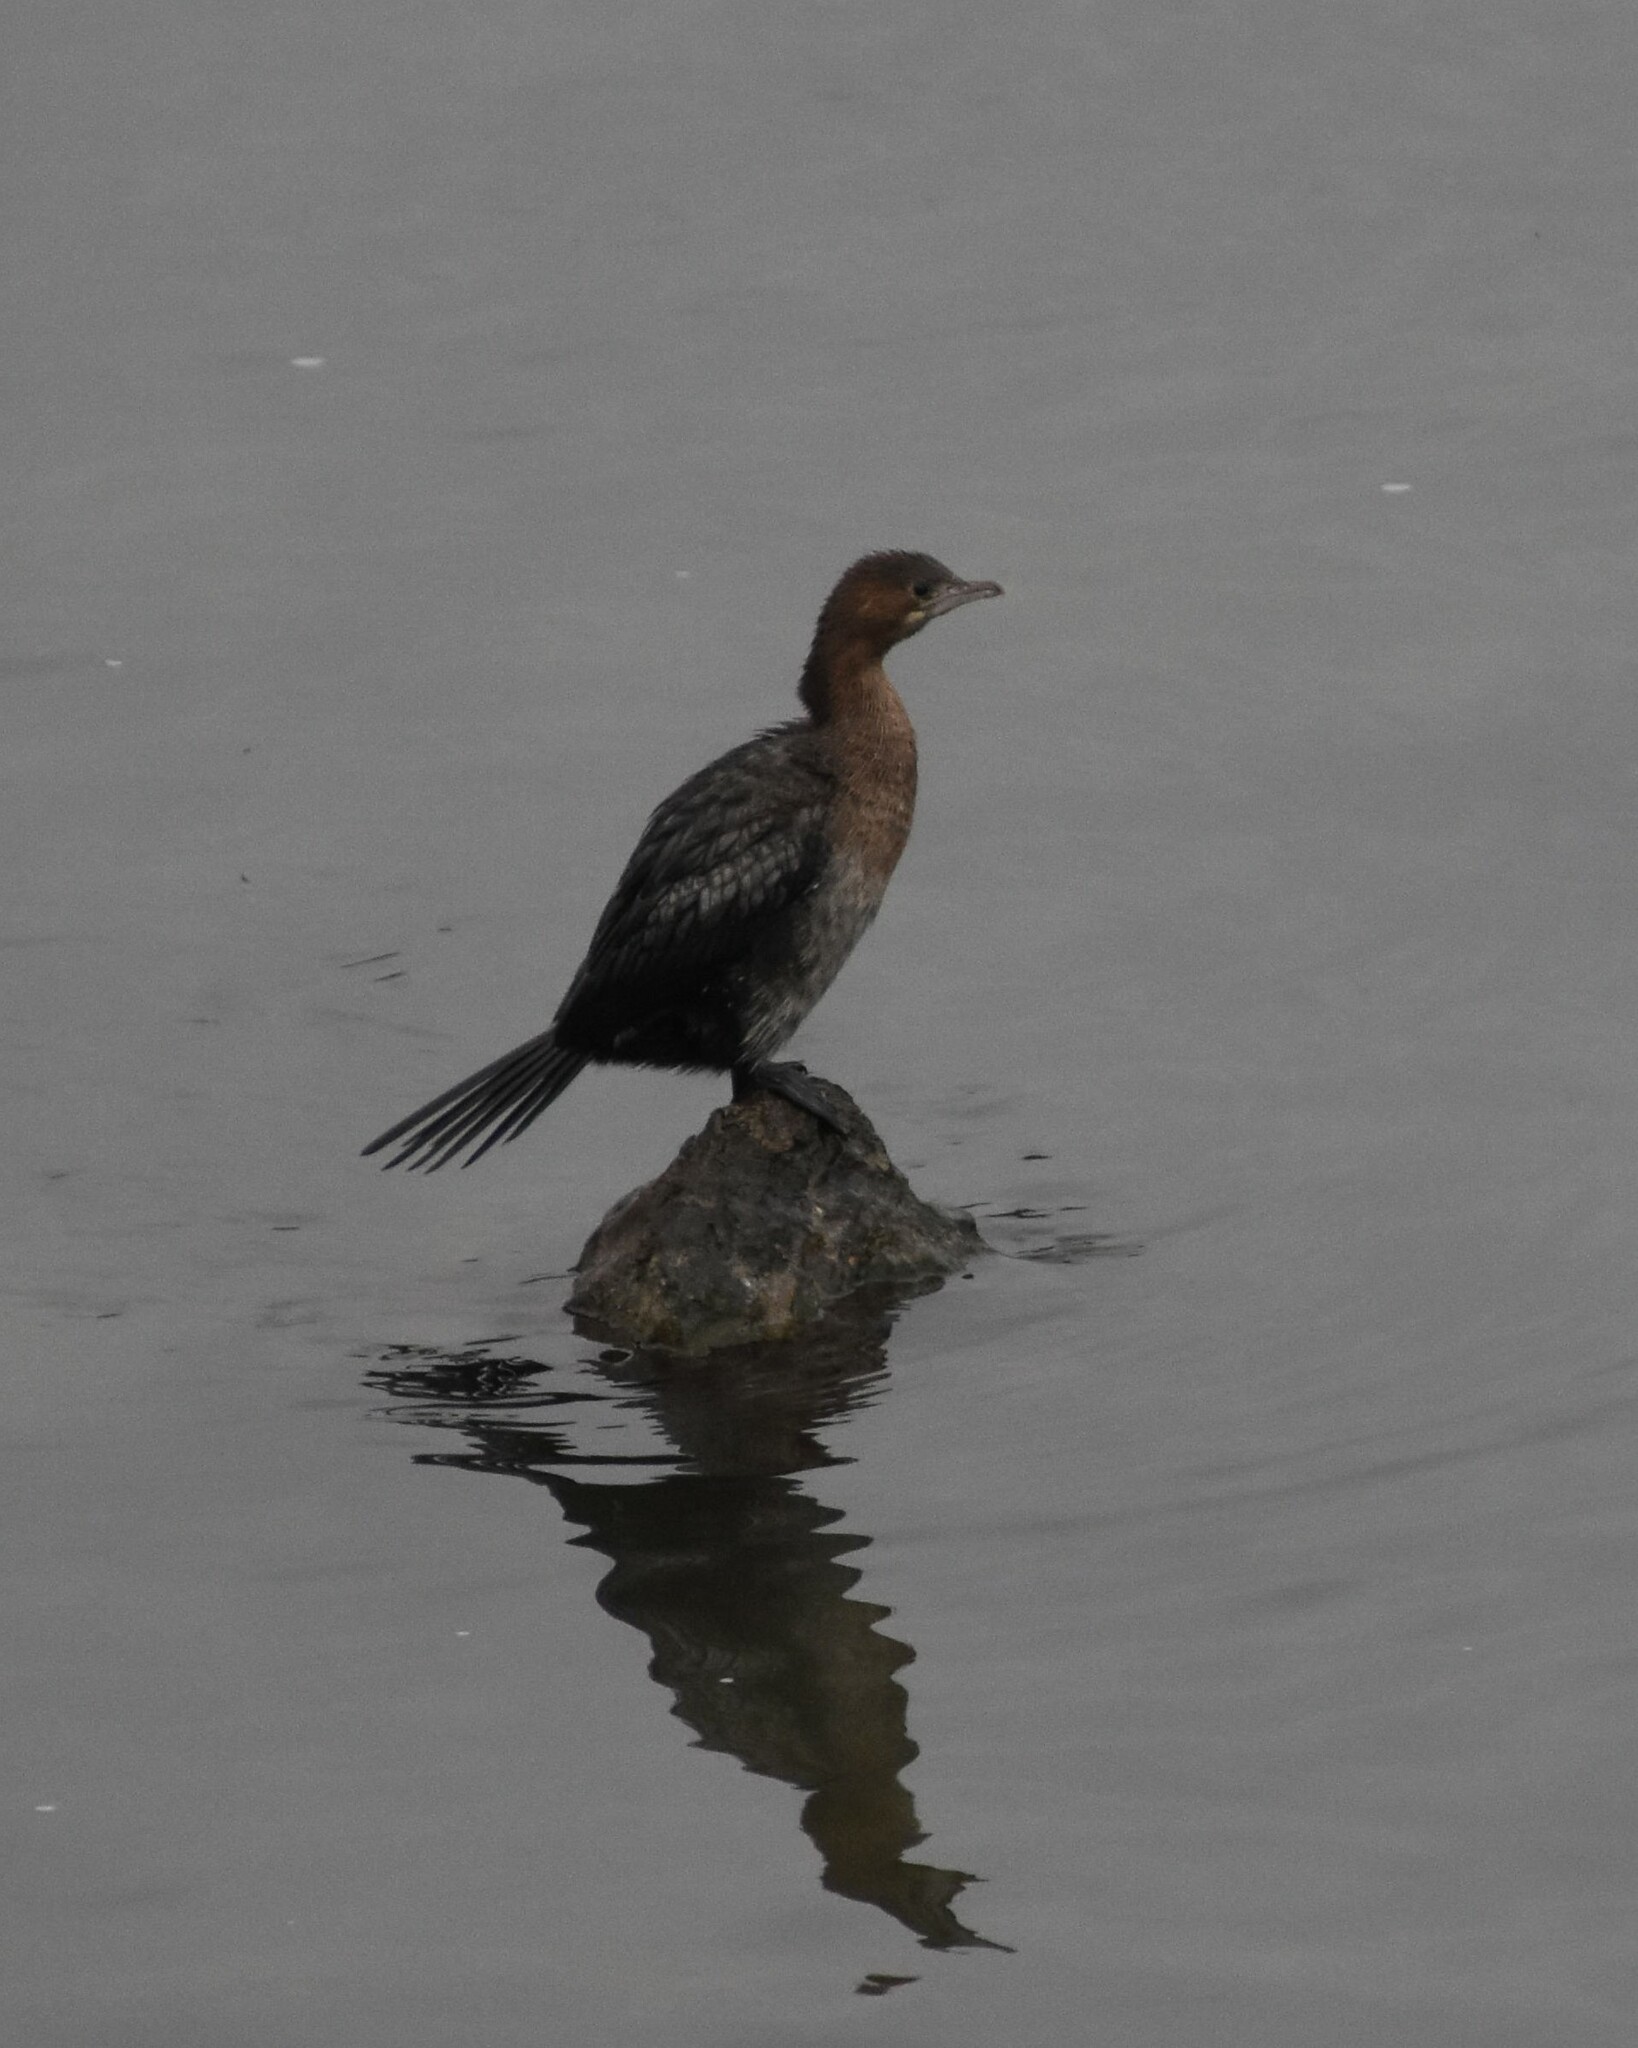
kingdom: Animalia
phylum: Chordata
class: Aves
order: Suliformes
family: Phalacrocoracidae
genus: Microcarbo
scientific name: Microcarbo pygmaeus
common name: Pygmy cormorant
